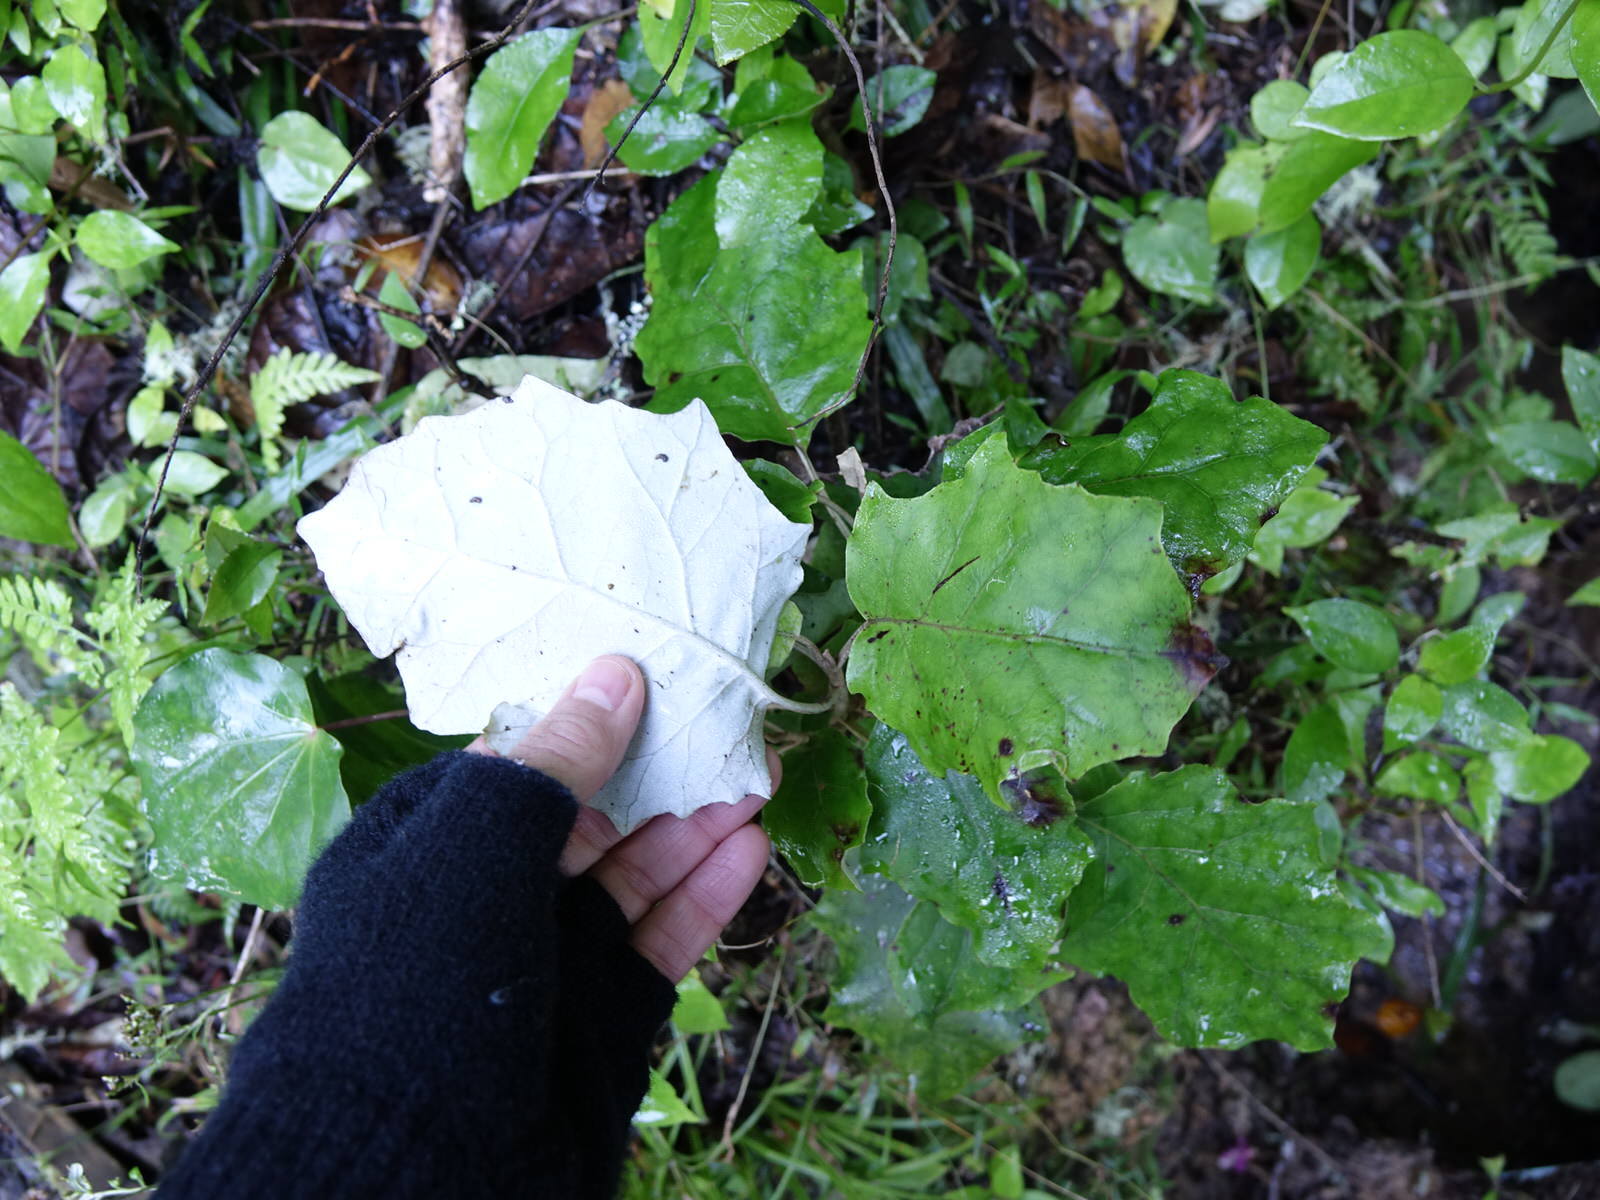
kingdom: Plantae
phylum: Tracheophyta
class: Magnoliopsida
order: Asterales
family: Asteraceae
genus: Brachyglottis
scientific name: Brachyglottis repanda
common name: Hedge ragwort
